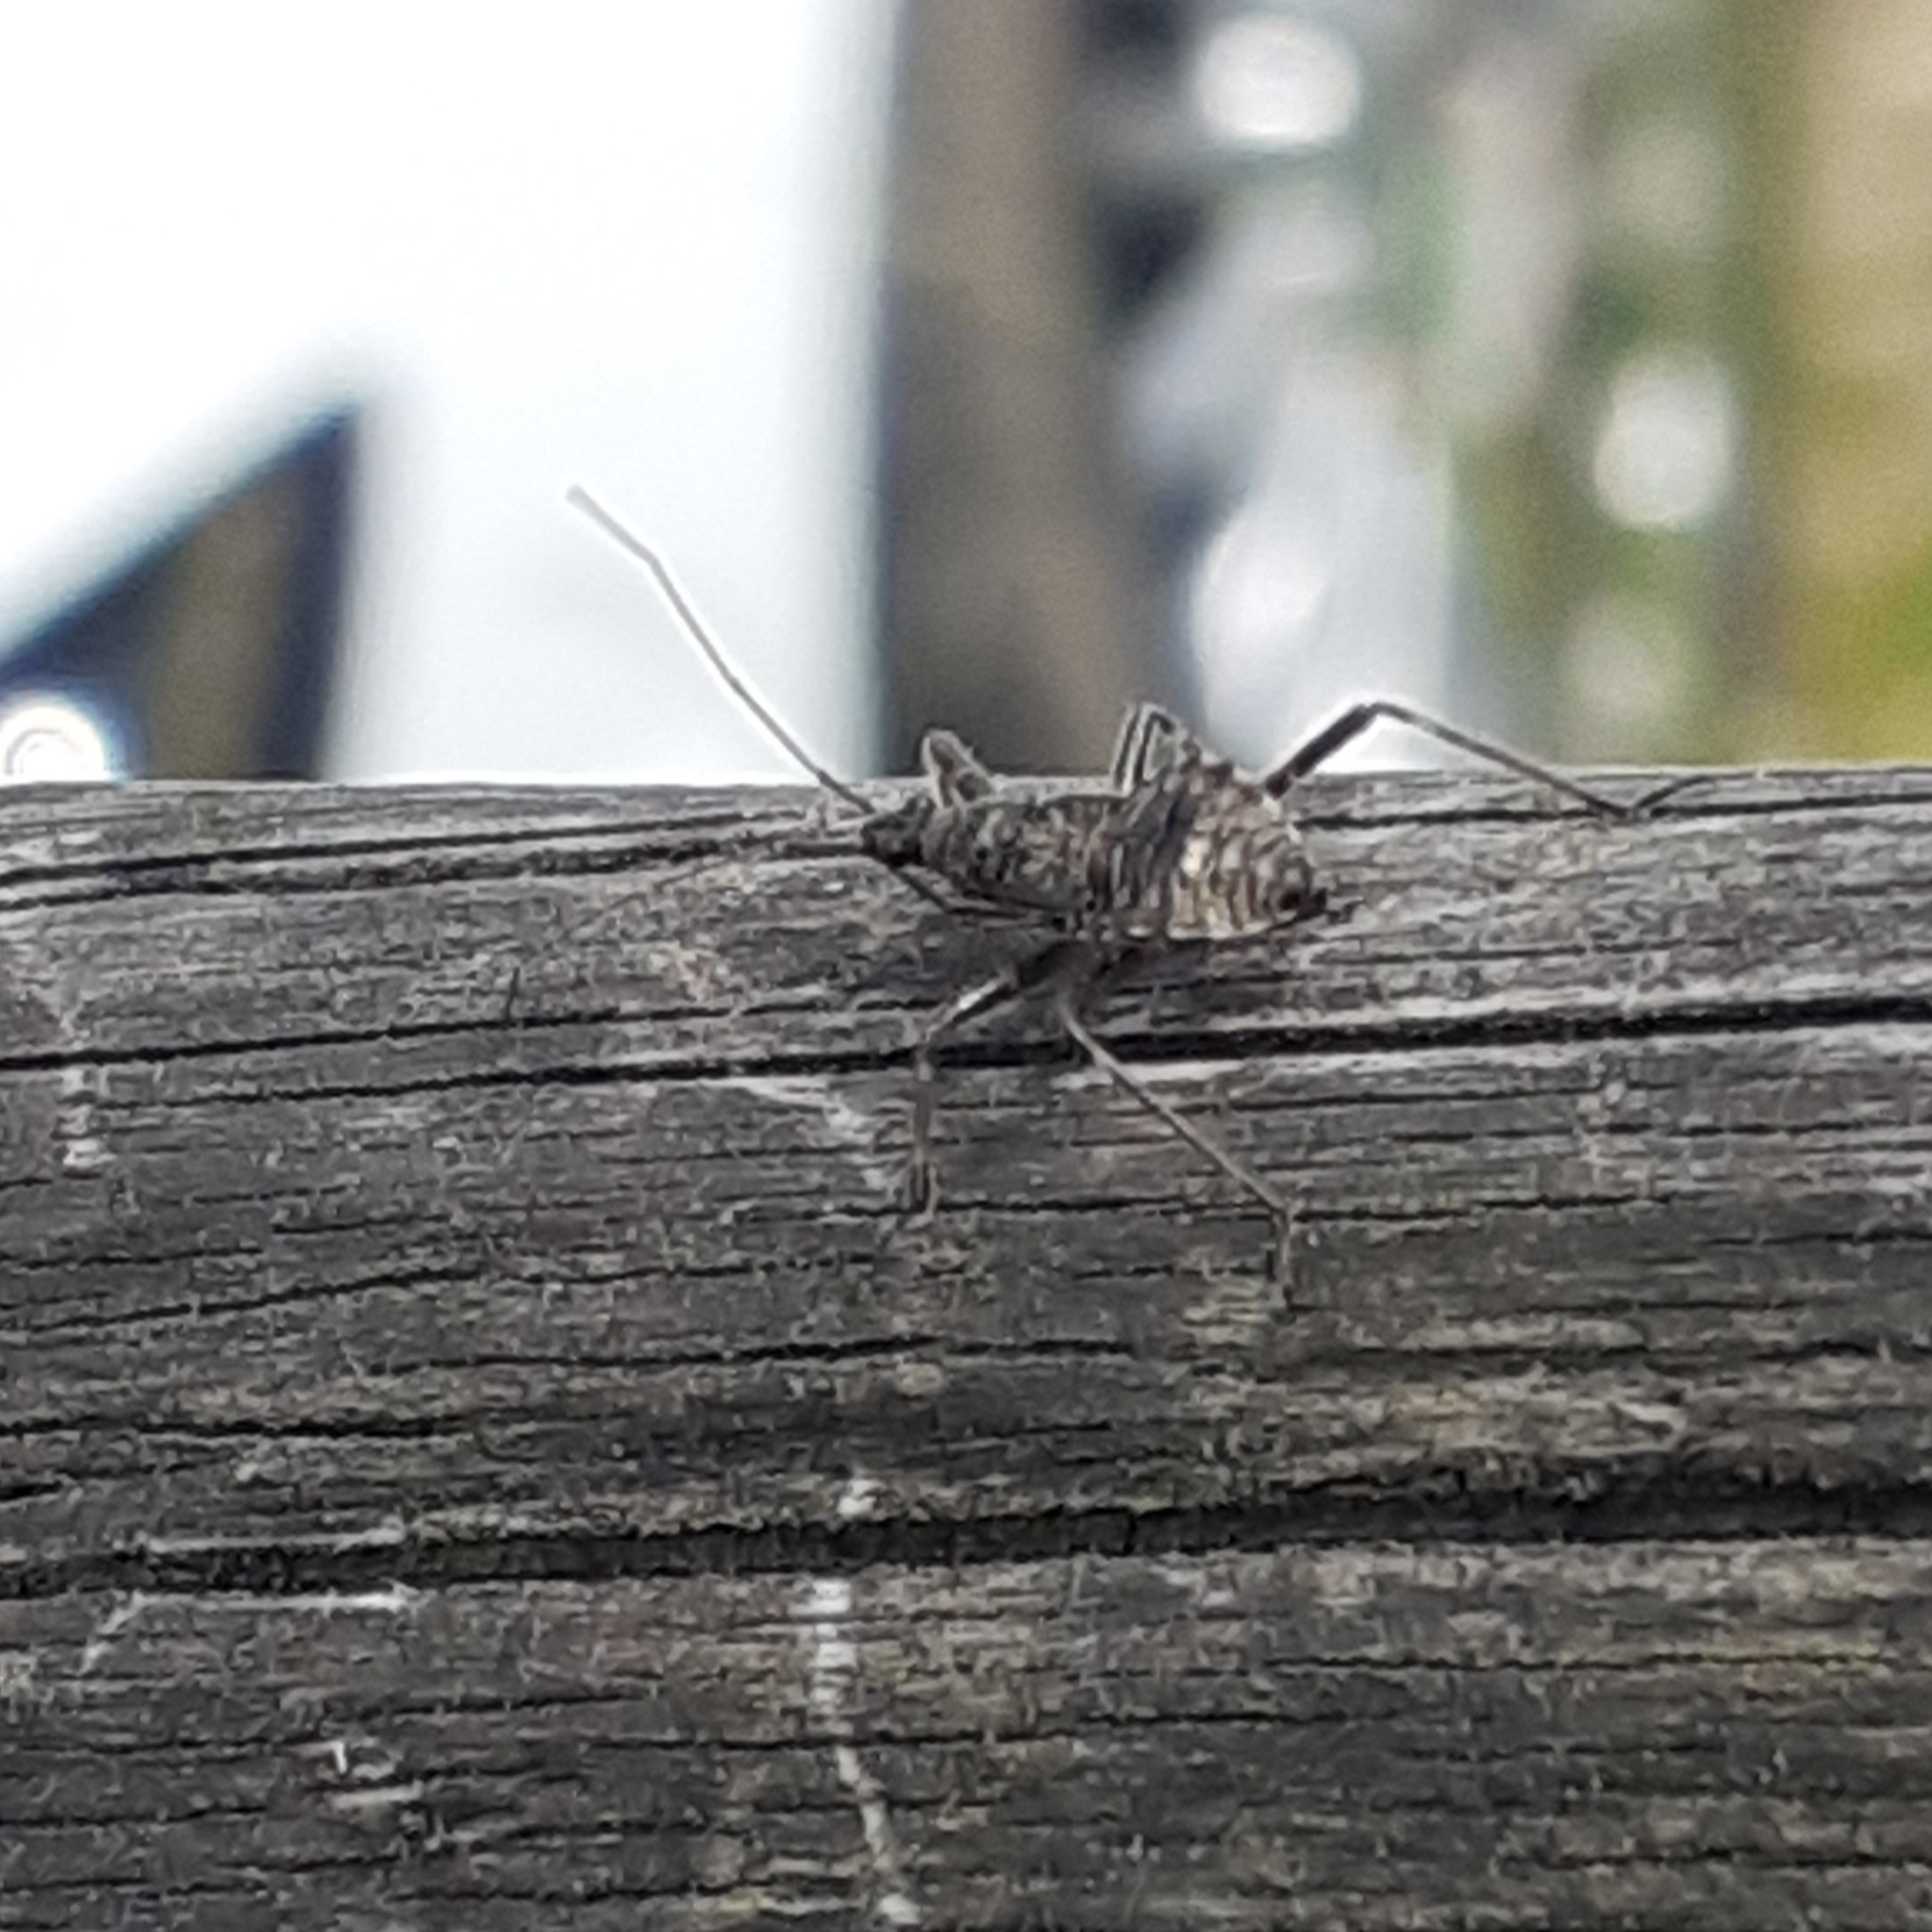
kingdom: Animalia
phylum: Arthropoda
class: Insecta
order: Hemiptera
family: Nabidae
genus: Himacerus
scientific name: Himacerus apterus
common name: Tree damsel bug
